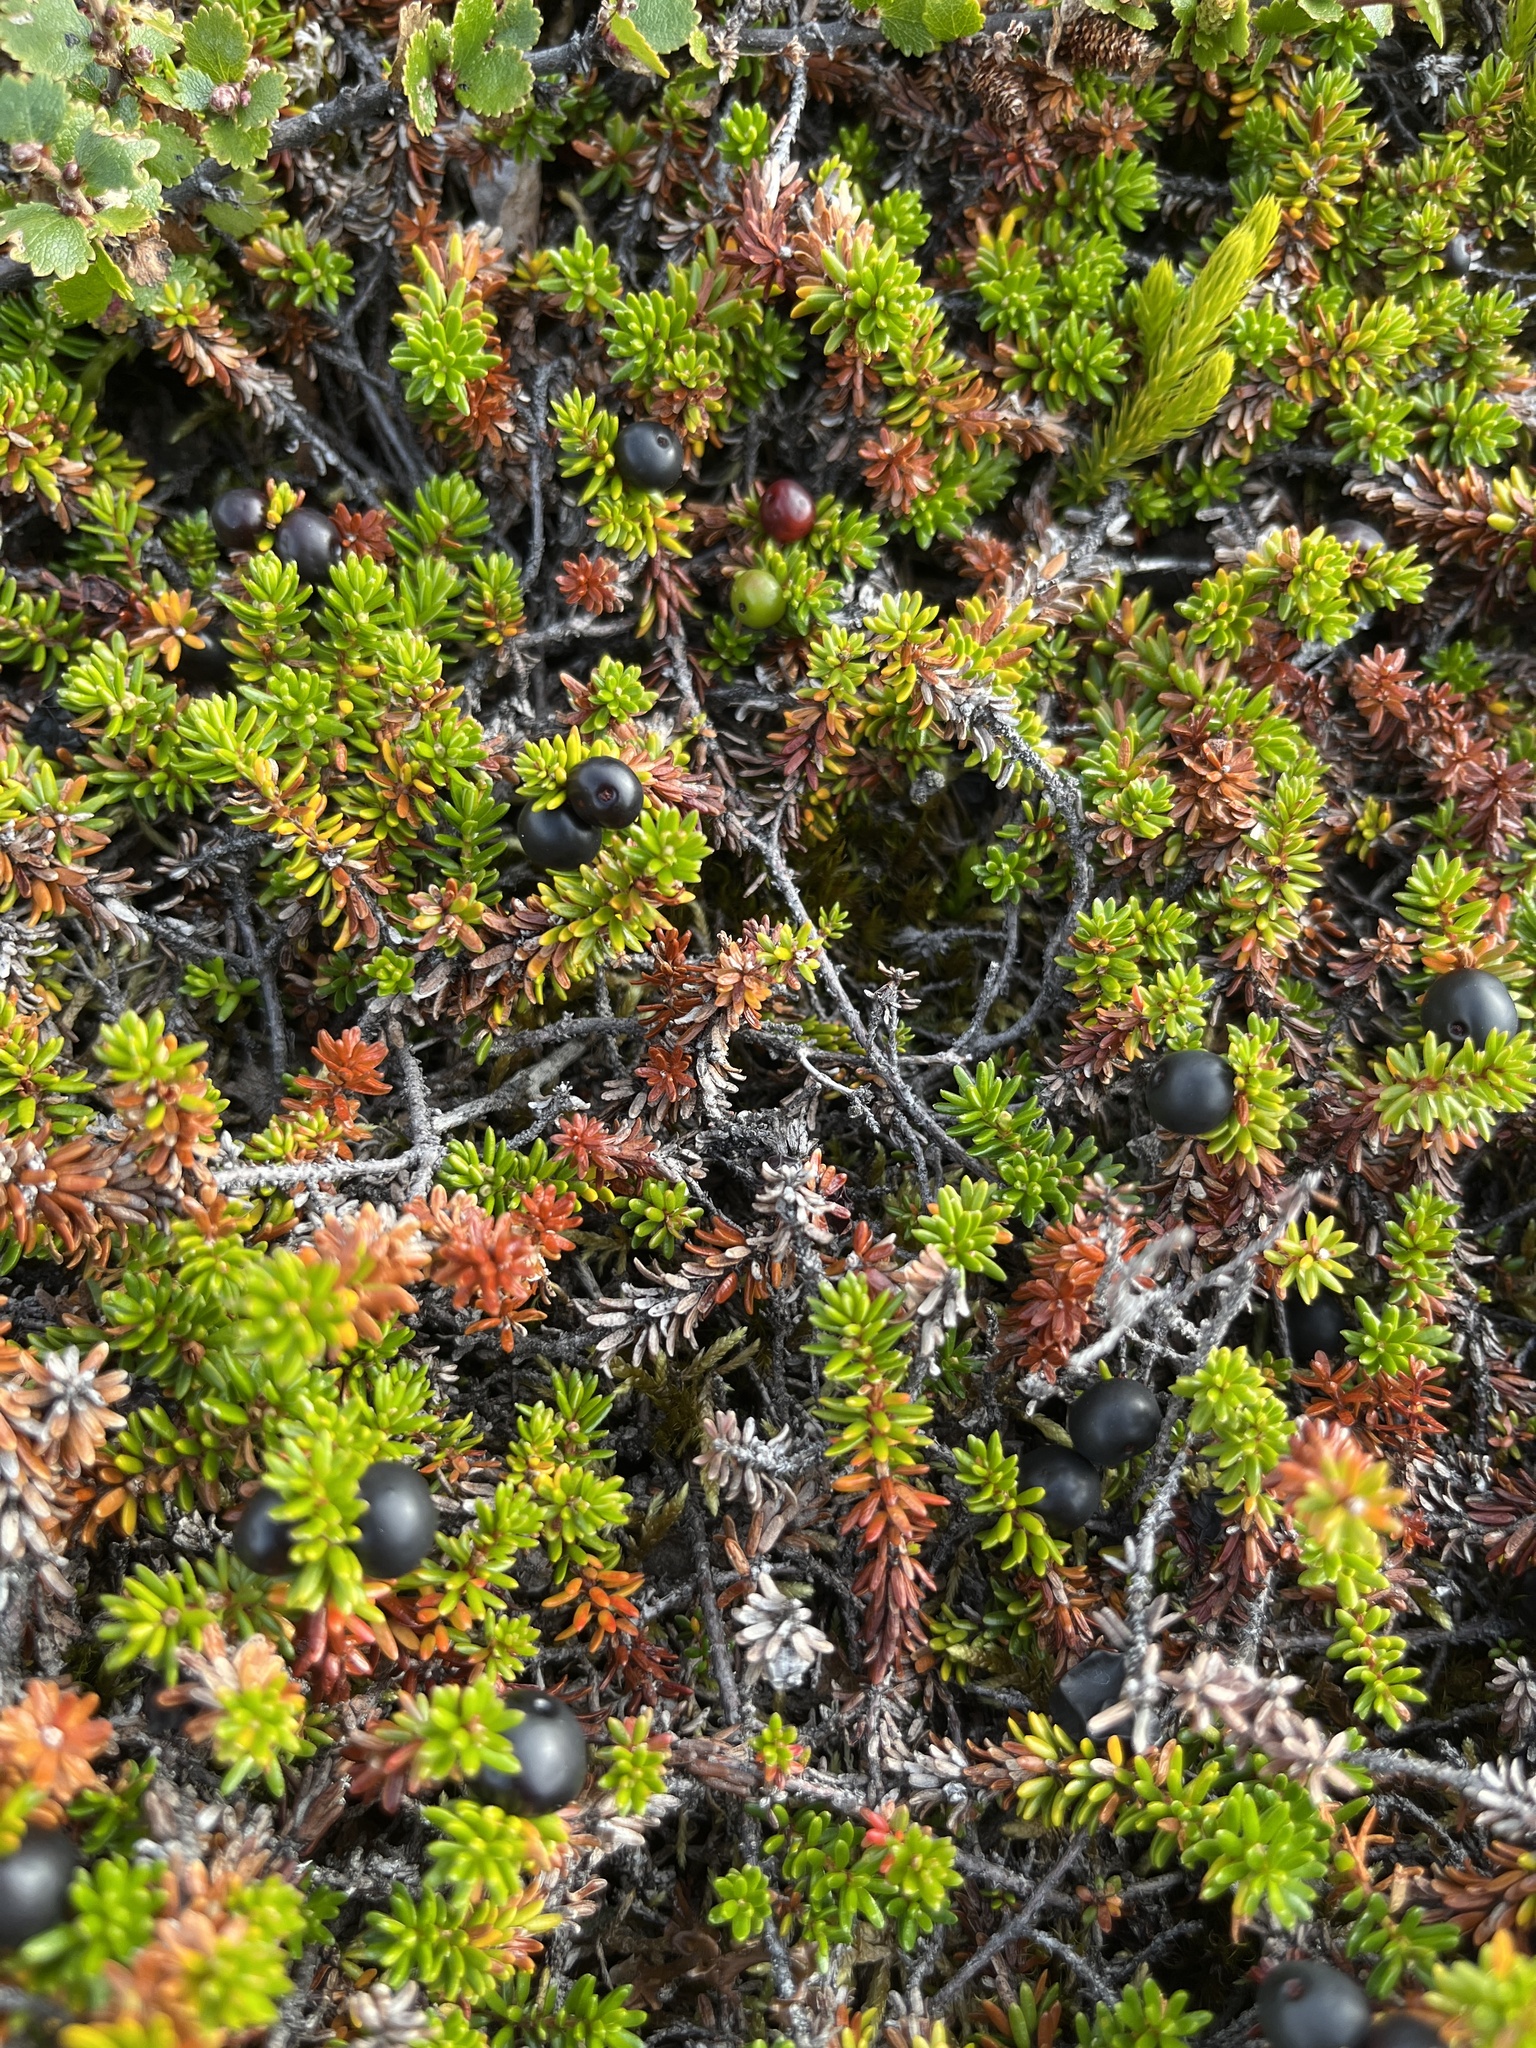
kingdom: Plantae
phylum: Tracheophyta
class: Magnoliopsida
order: Ericales
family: Ericaceae
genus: Empetrum
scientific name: Empetrum hermaphroditum
